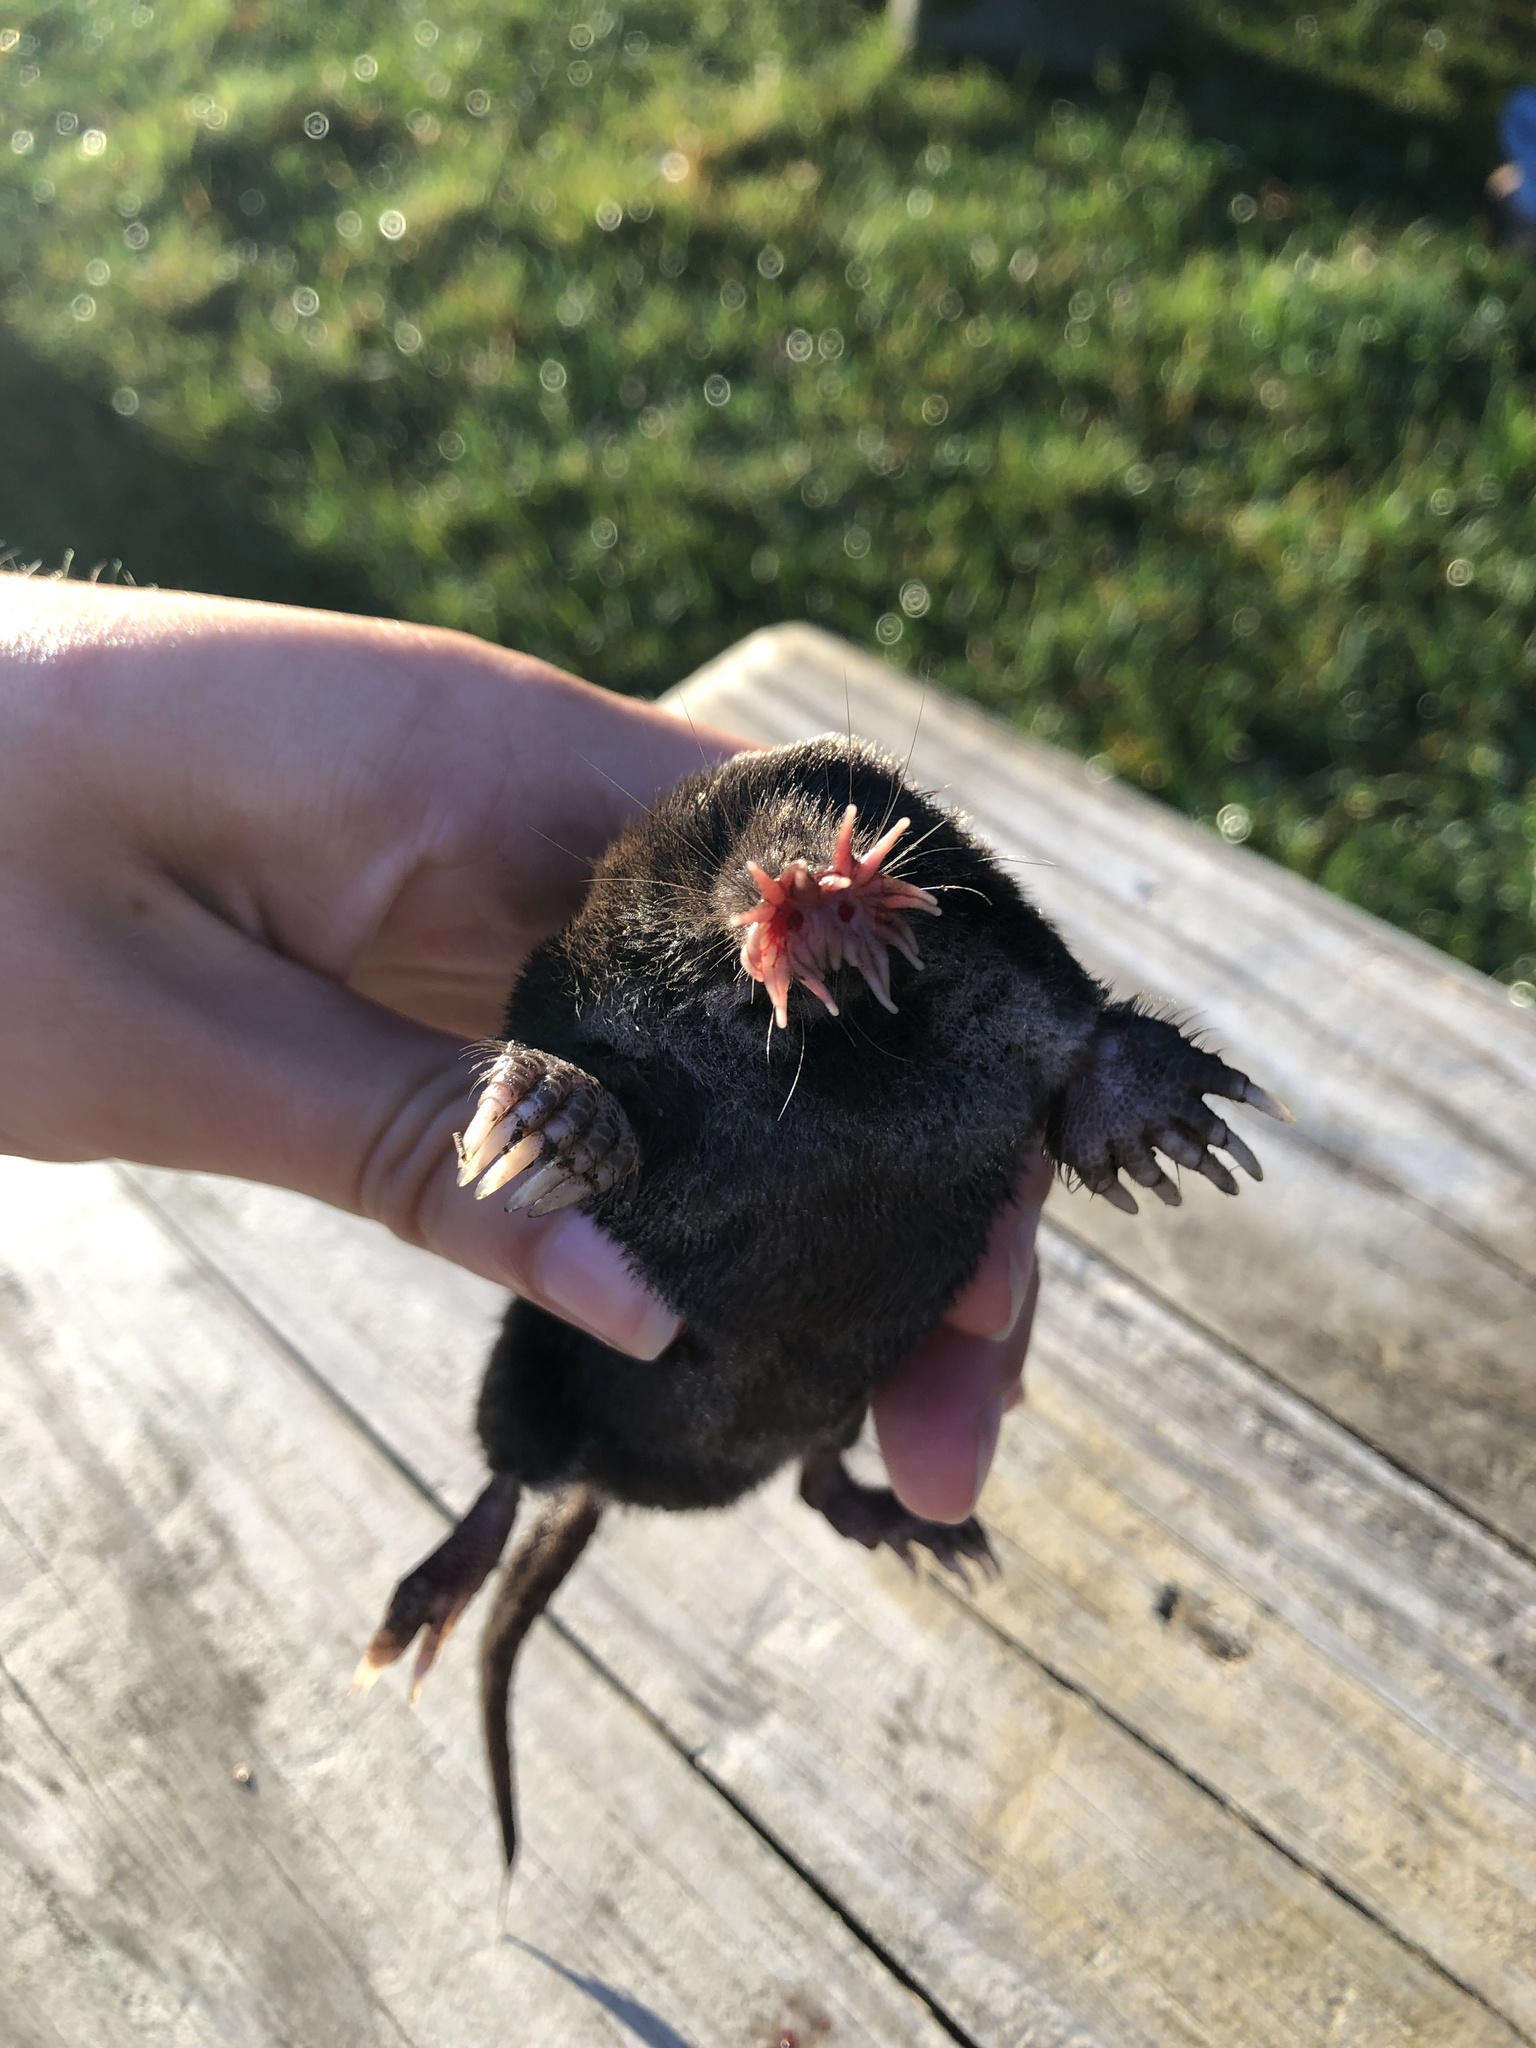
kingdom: Animalia
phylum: Chordata
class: Mammalia
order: Soricomorpha
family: Talpidae
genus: Condylura
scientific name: Condylura cristata
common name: Star-nosed mole
